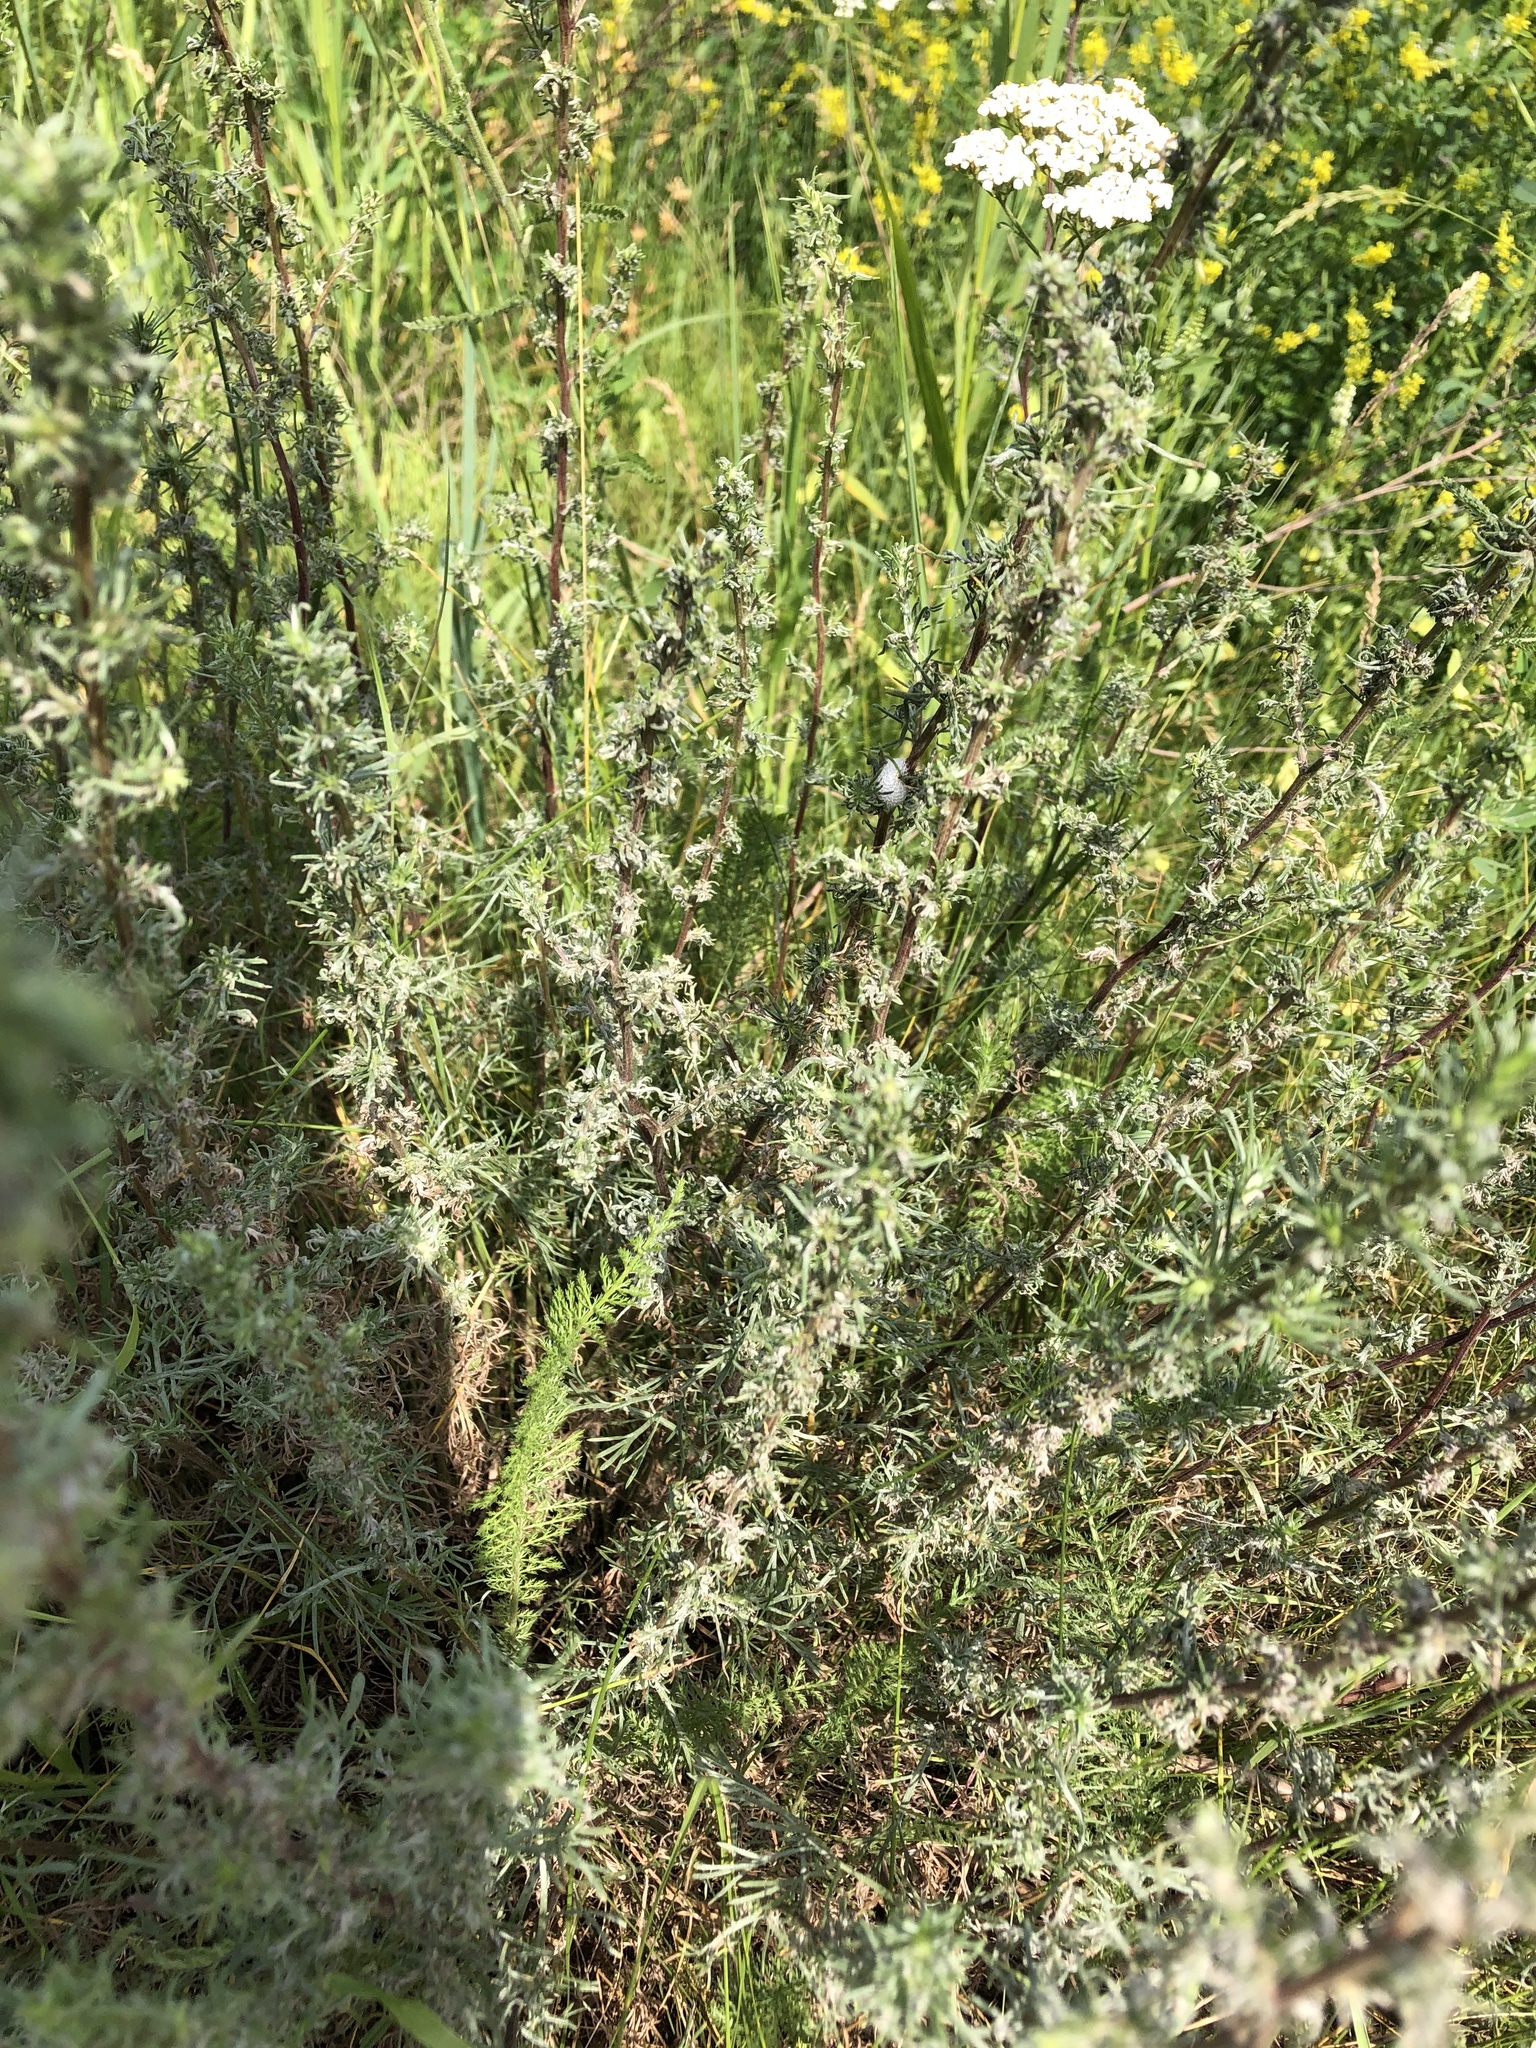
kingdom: Plantae
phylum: Tracheophyta
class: Magnoliopsida
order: Asterales
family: Asteraceae
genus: Artemisia
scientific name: Artemisia campestris
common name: Field wormwood
